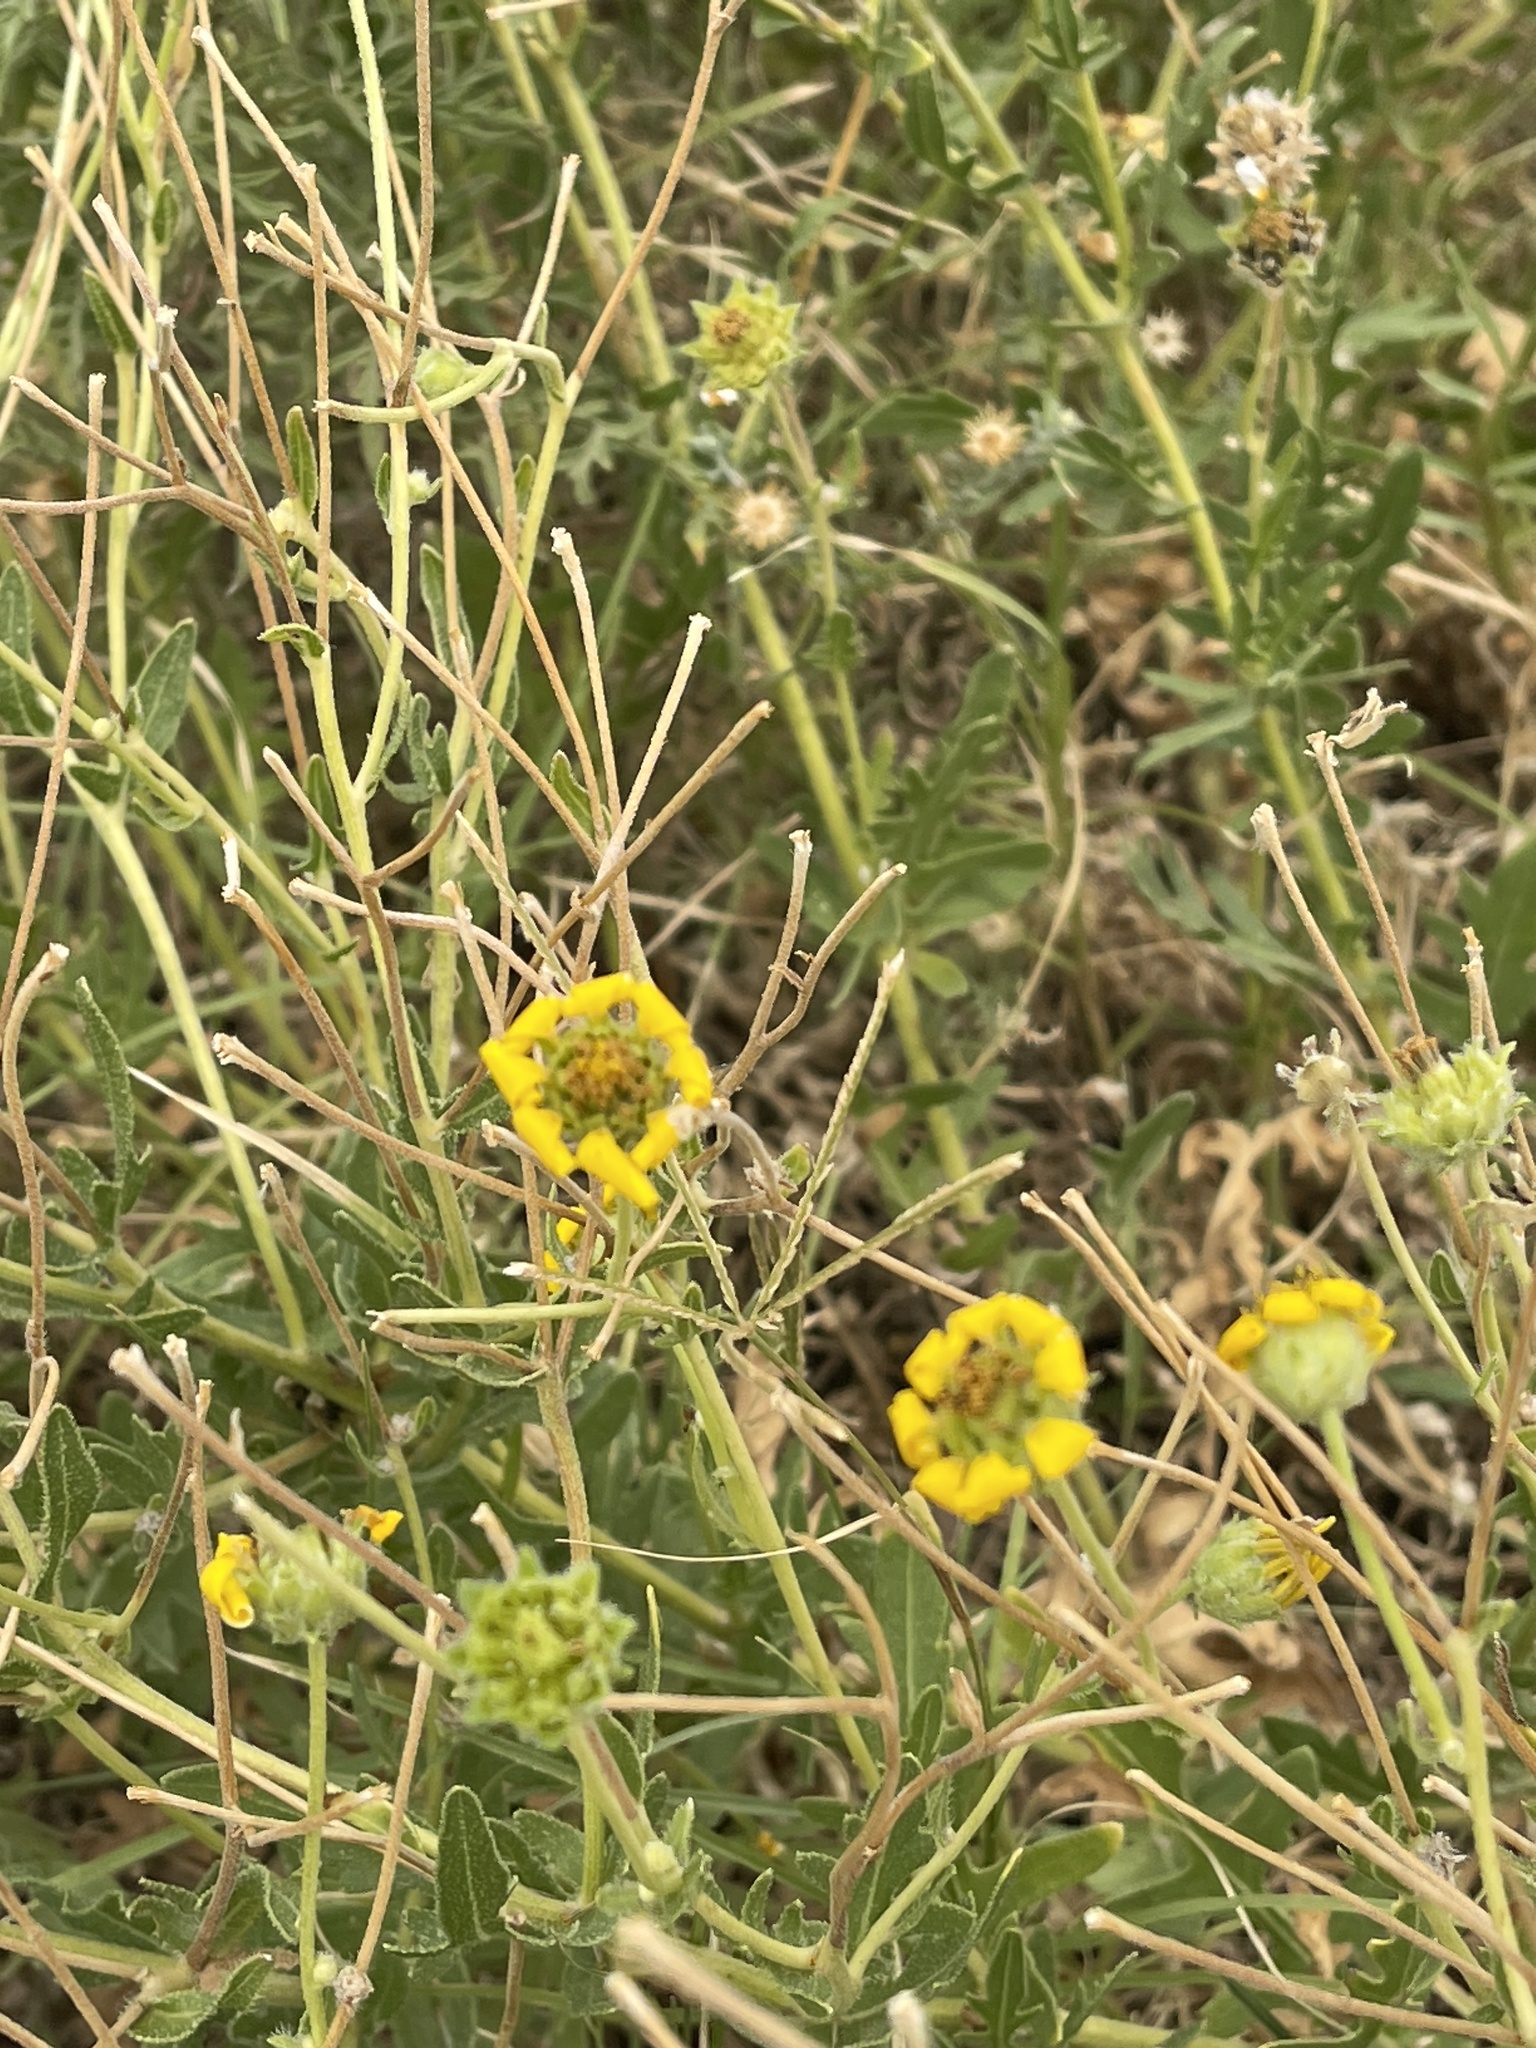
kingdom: Plantae
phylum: Tracheophyta
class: Magnoliopsida
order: Asterales
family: Asteraceae
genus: Engelmannia
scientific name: Engelmannia peristenia
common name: Engelmann's daisy
